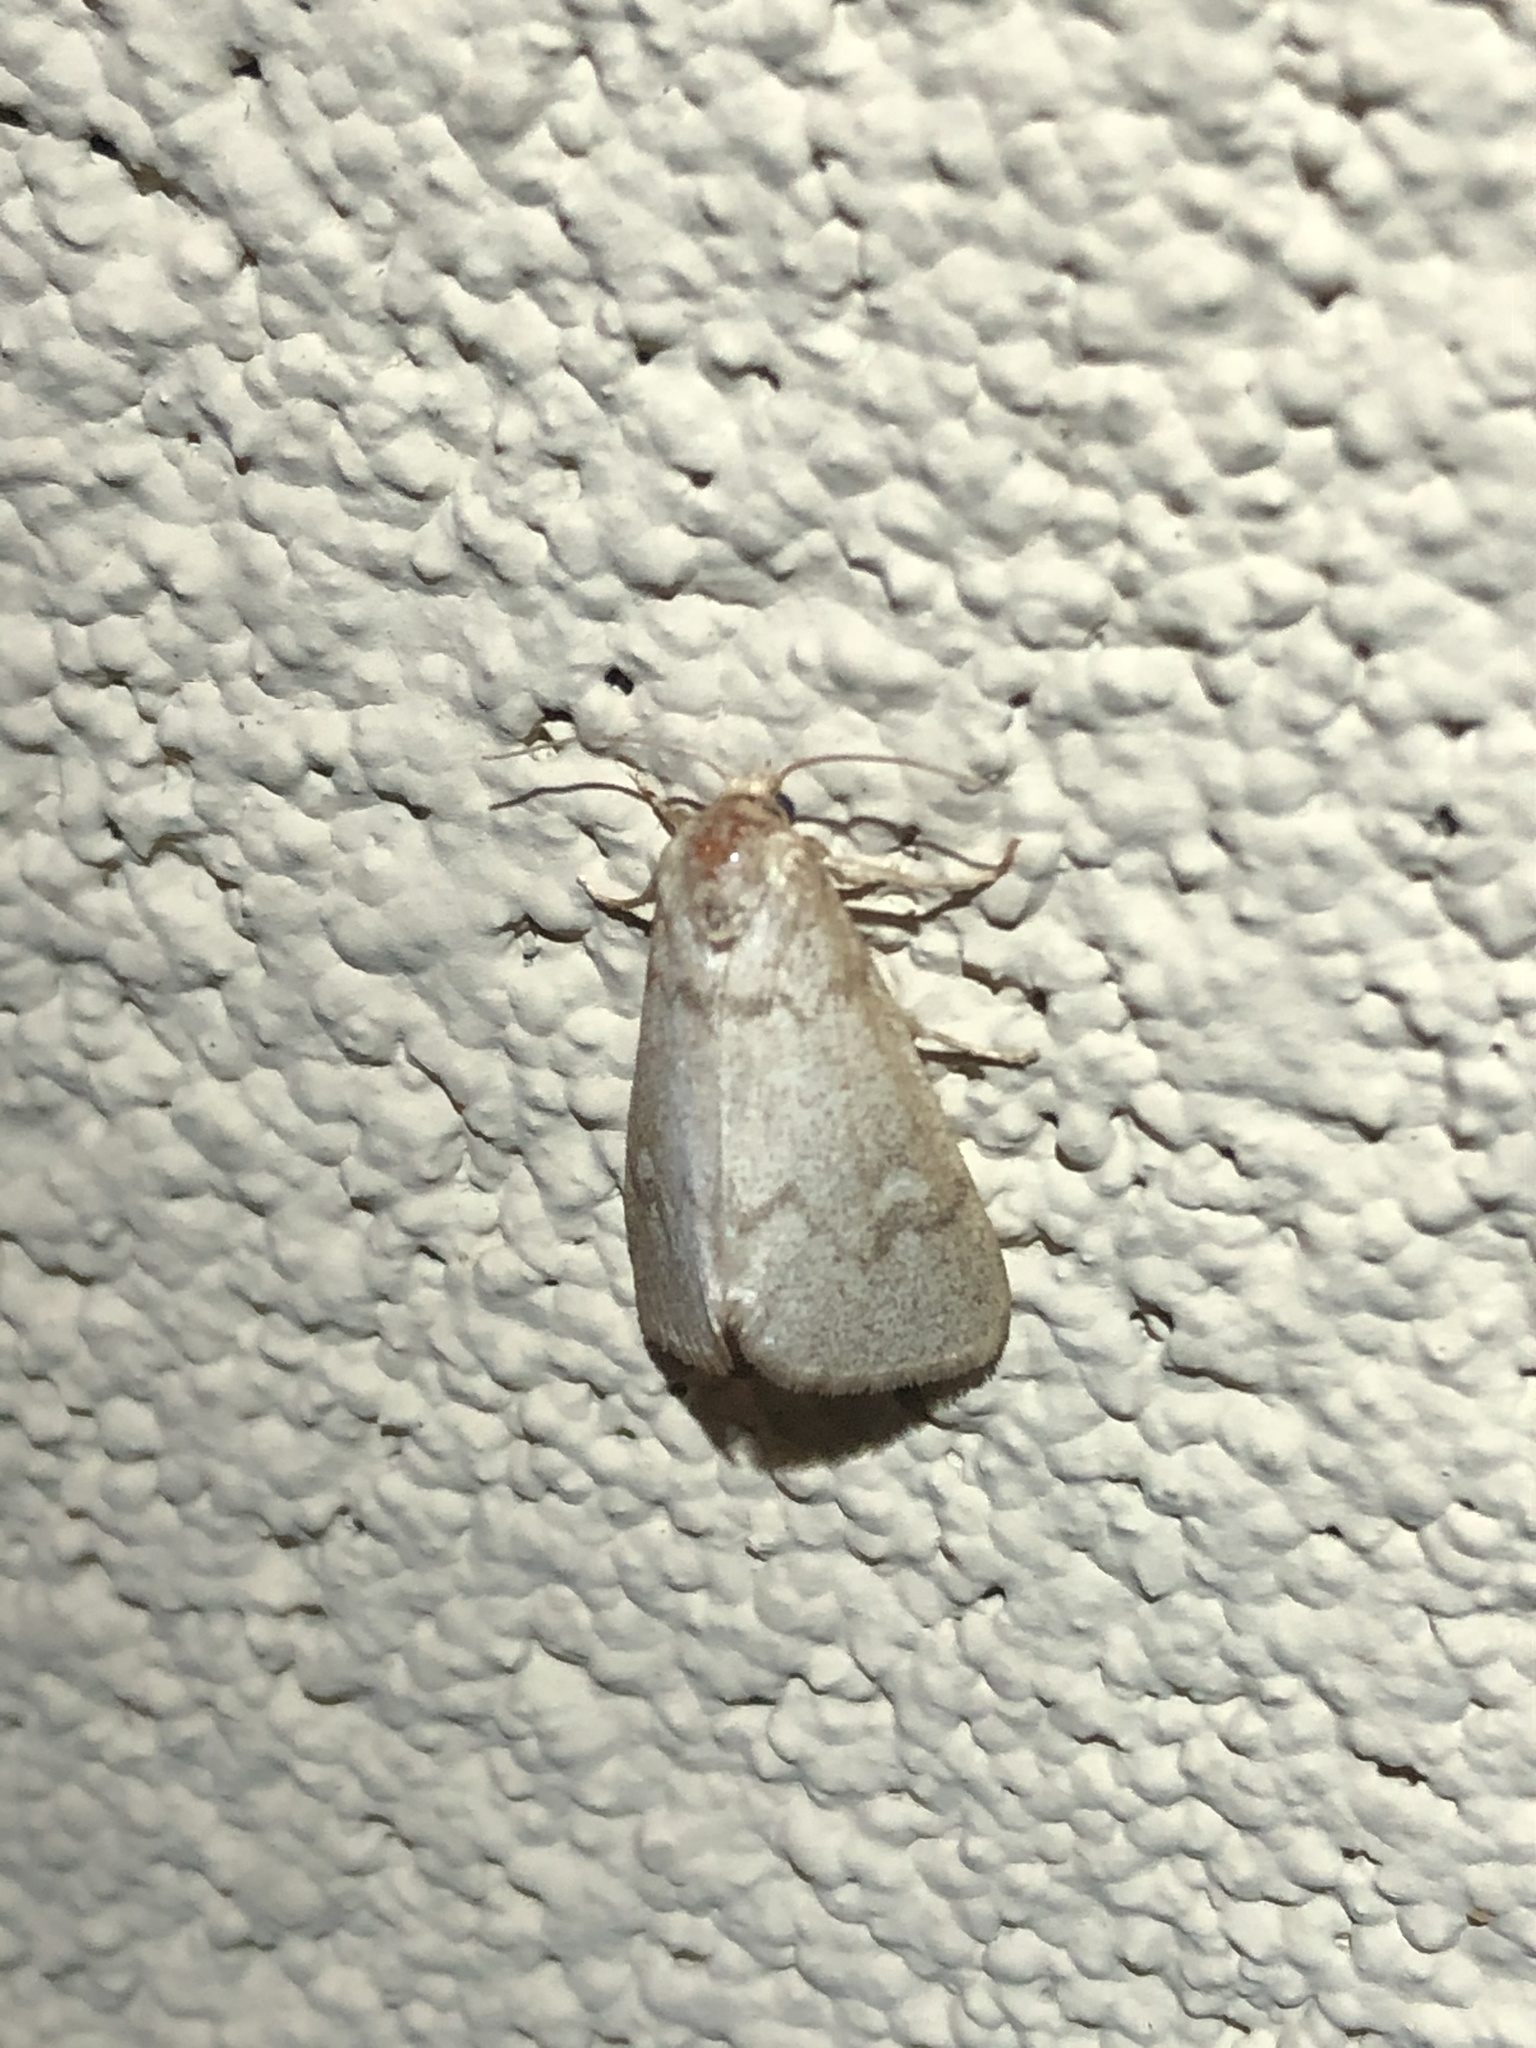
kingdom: Animalia
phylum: Arthropoda
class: Insecta
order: Lepidoptera
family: Noctuidae
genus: Narthecophora
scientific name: Narthecophora pulverea
